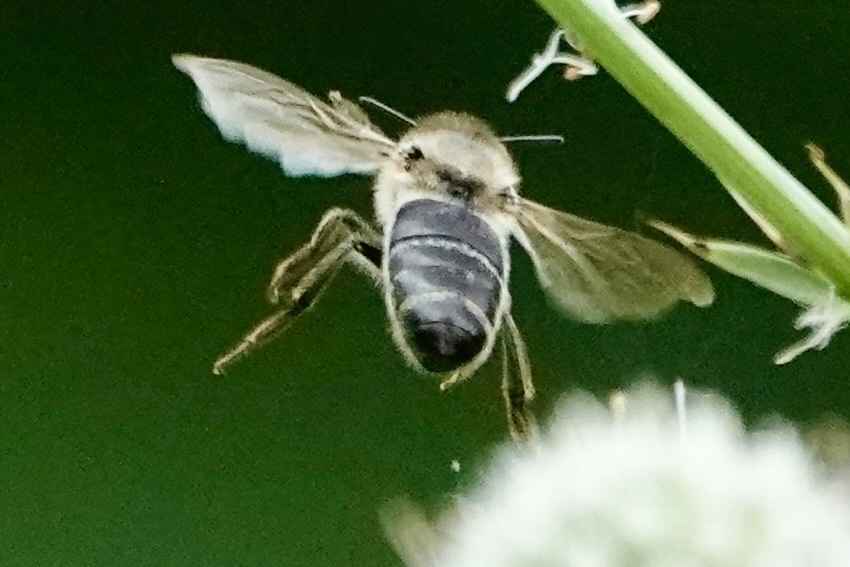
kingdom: Animalia
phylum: Arthropoda
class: Insecta
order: Hymenoptera
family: Apidae
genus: Apis
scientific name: Apis mellifera
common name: Honey bee
